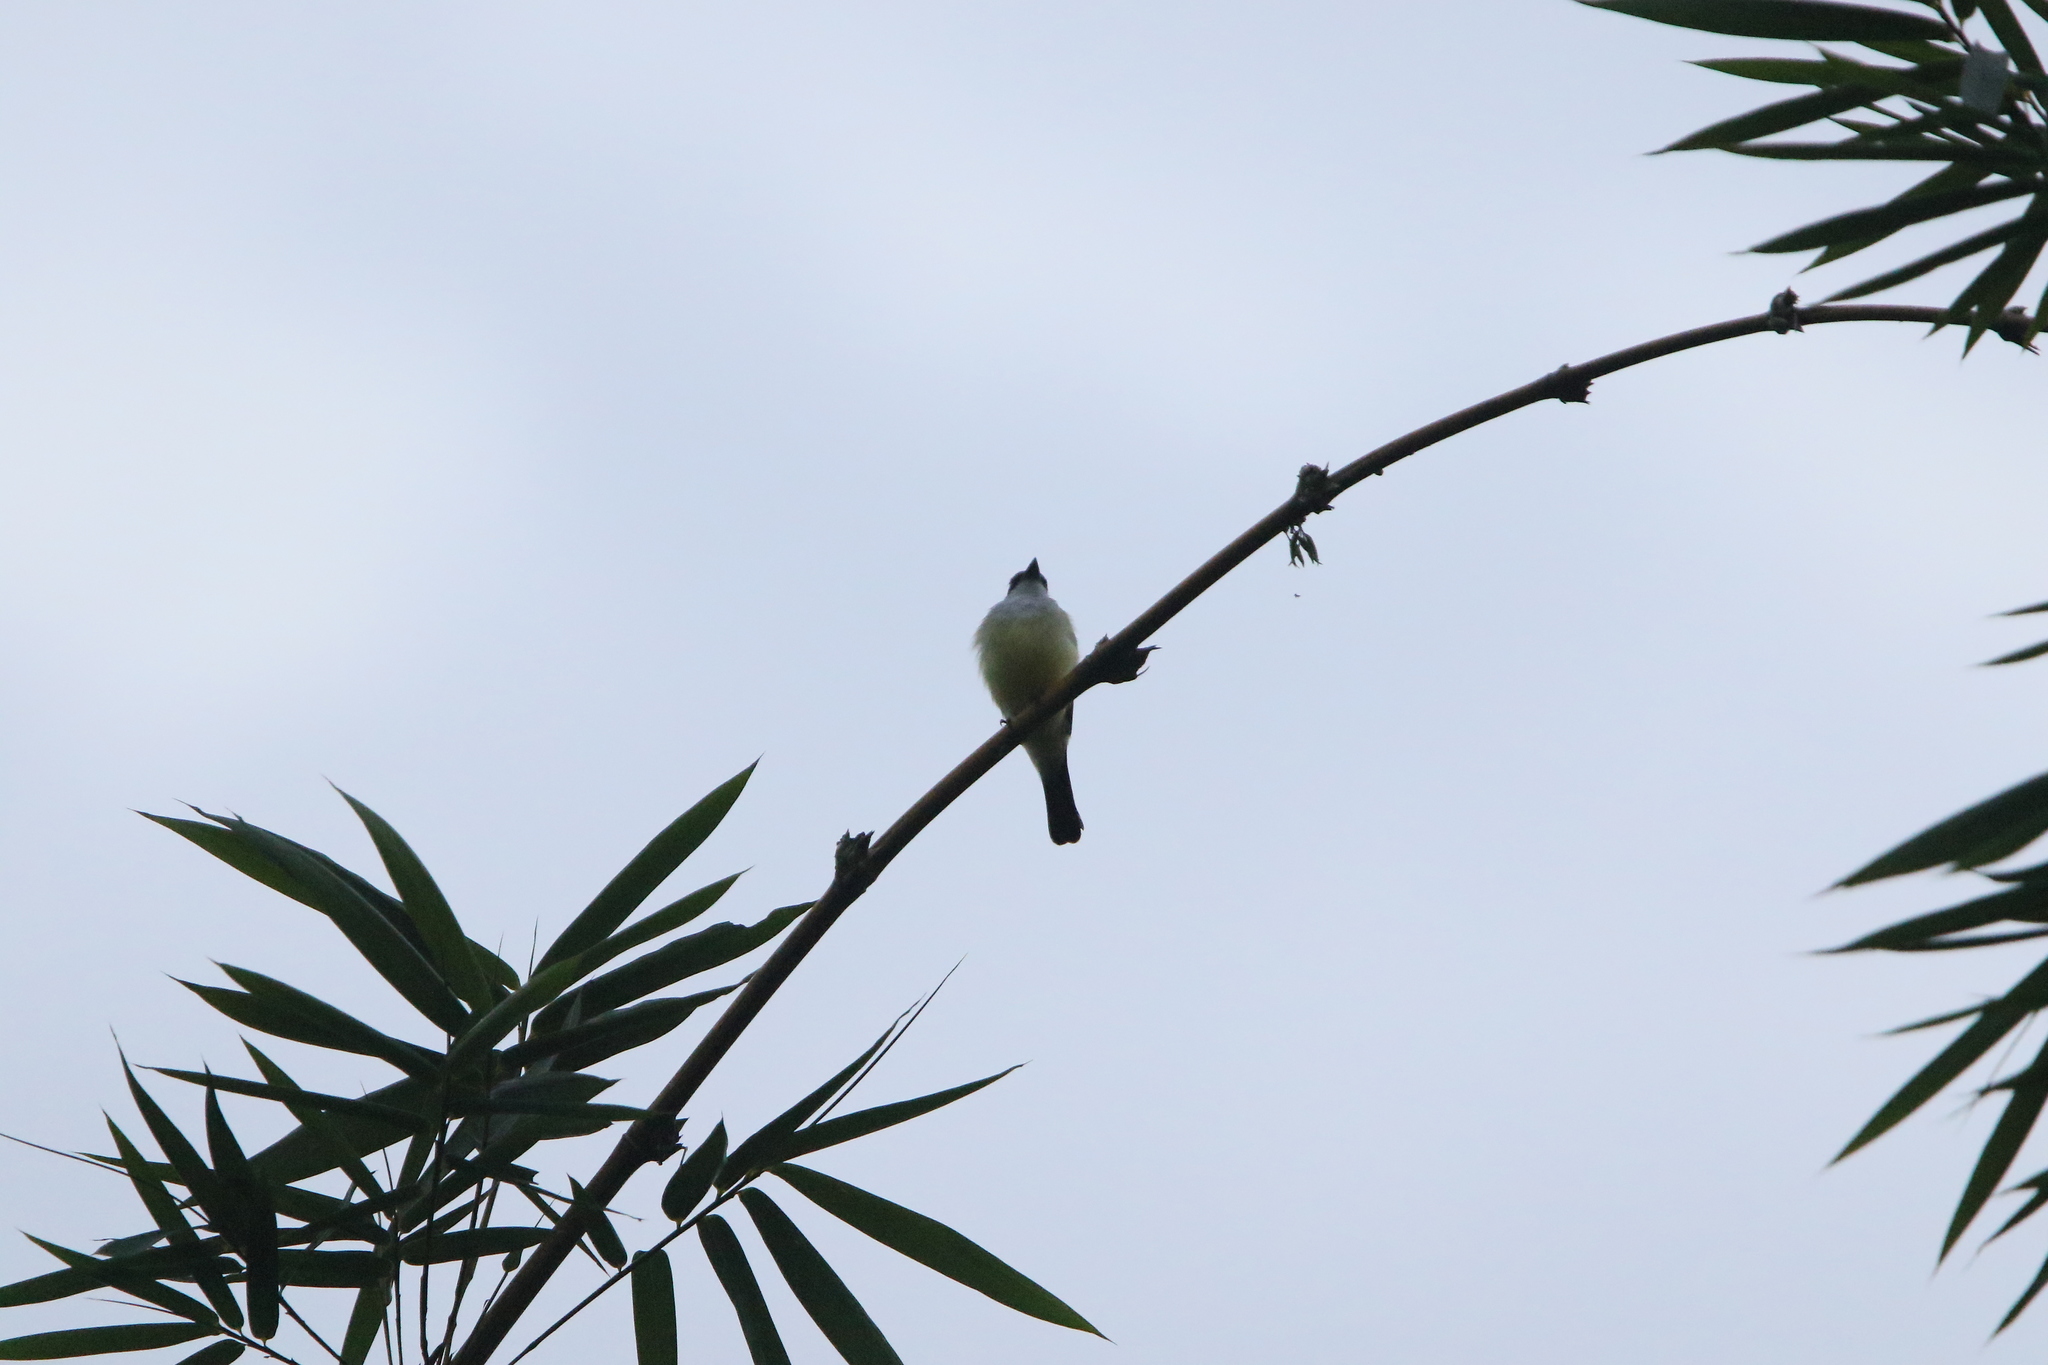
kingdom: Animalia
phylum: Chordata
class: Aves
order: Passeriformes
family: Tyrannidae
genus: Tyrannus
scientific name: Tyrannus niveigularis
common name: Snowy-throated kingbird
